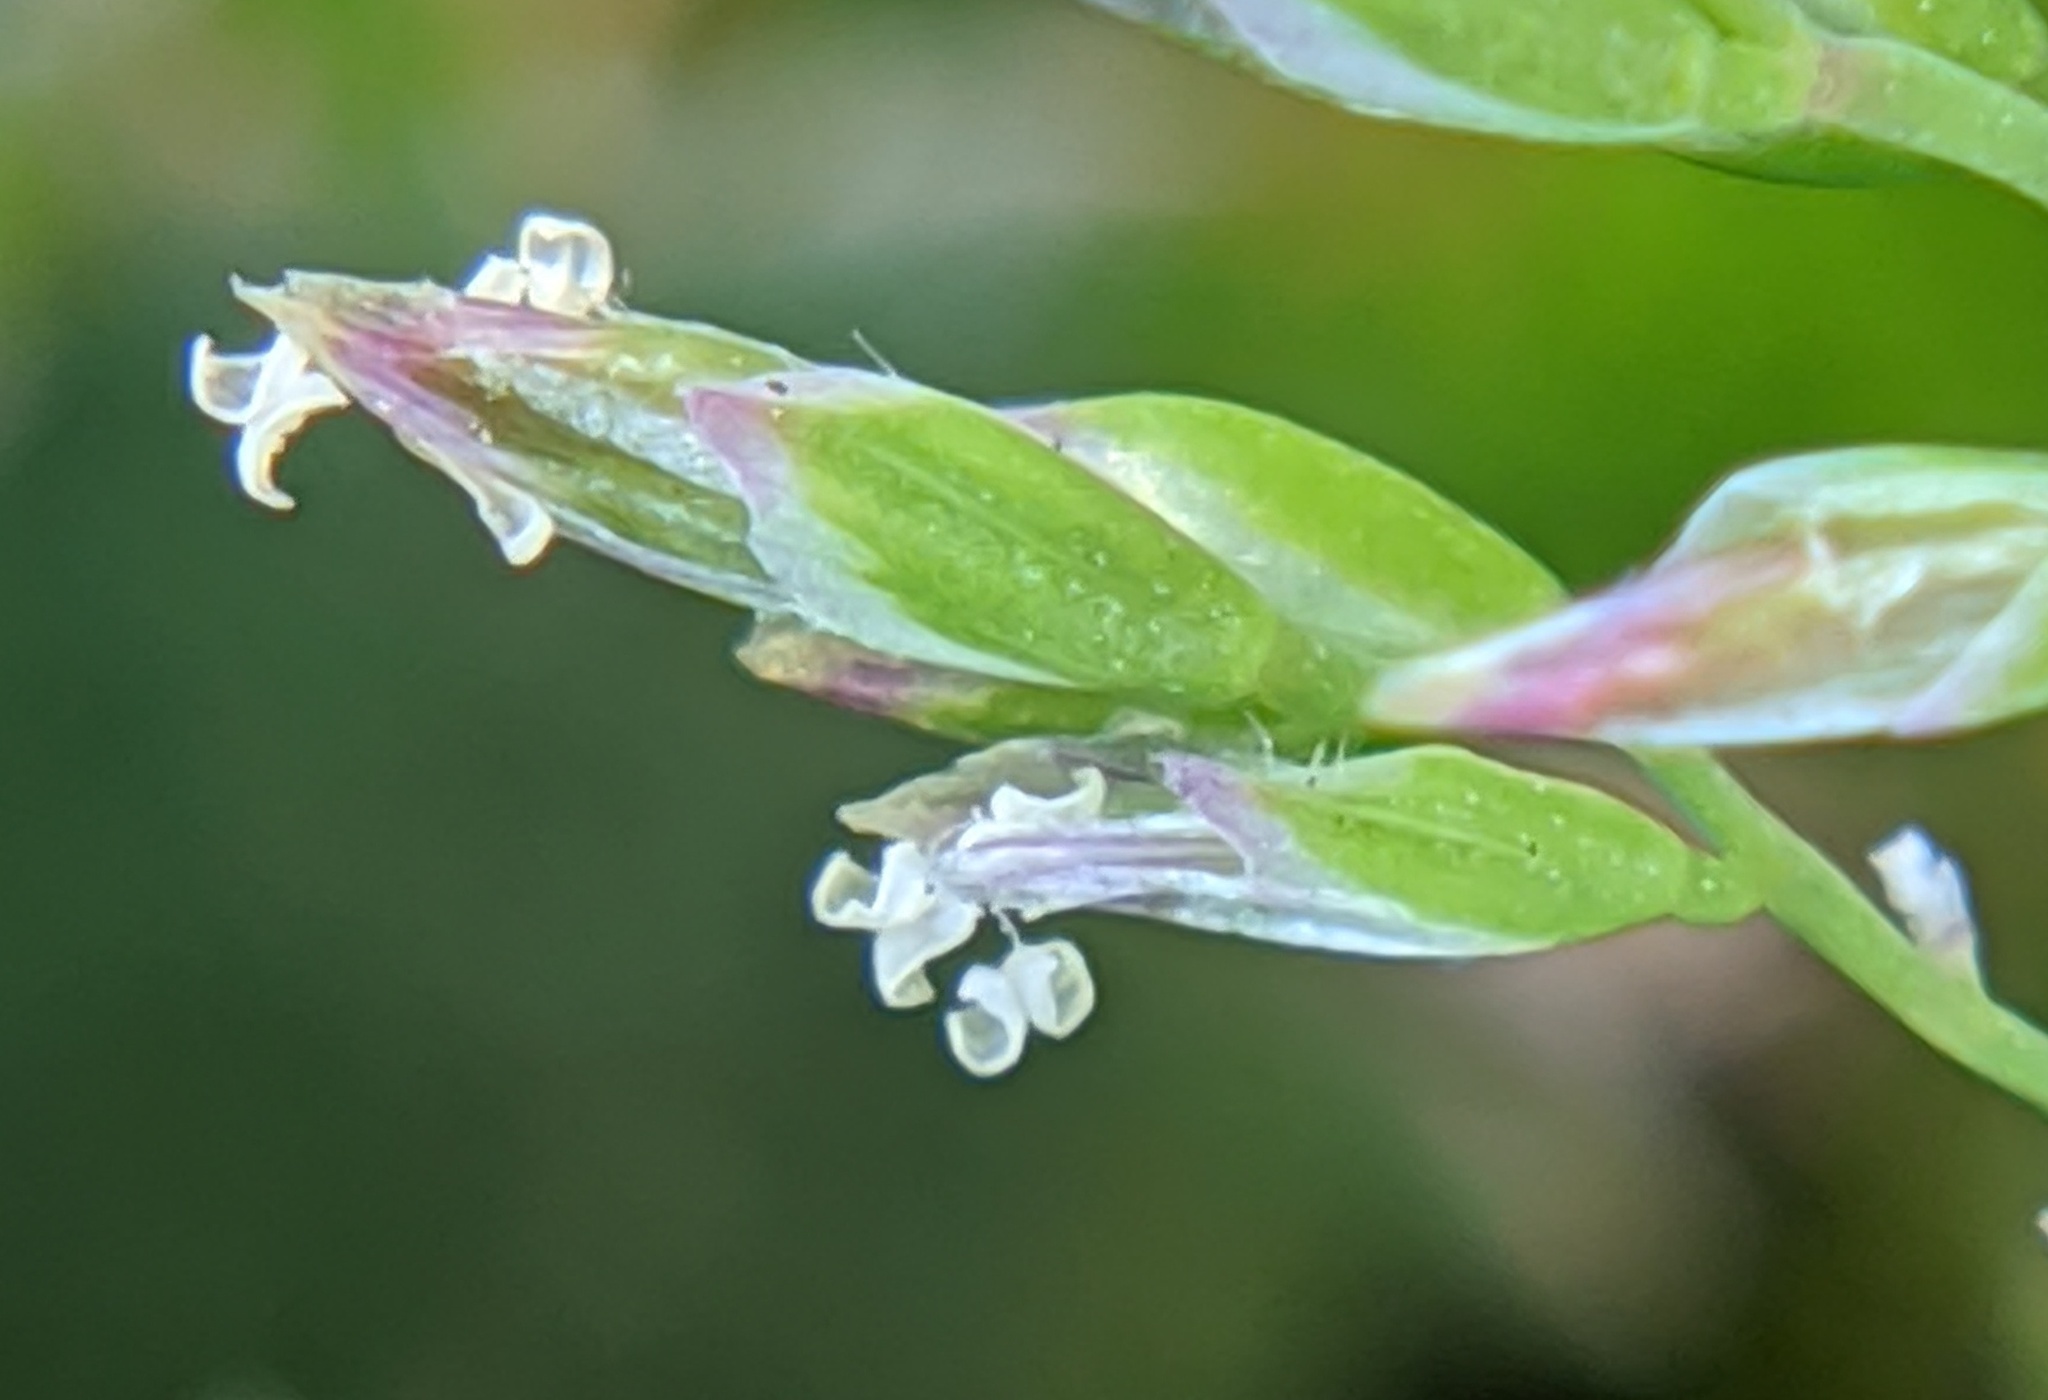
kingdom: Plantae
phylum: Tracheophyta
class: Liliopsida
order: Poales
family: Poaceae
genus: Poa
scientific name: Poa annua
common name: Annual bluegrass
